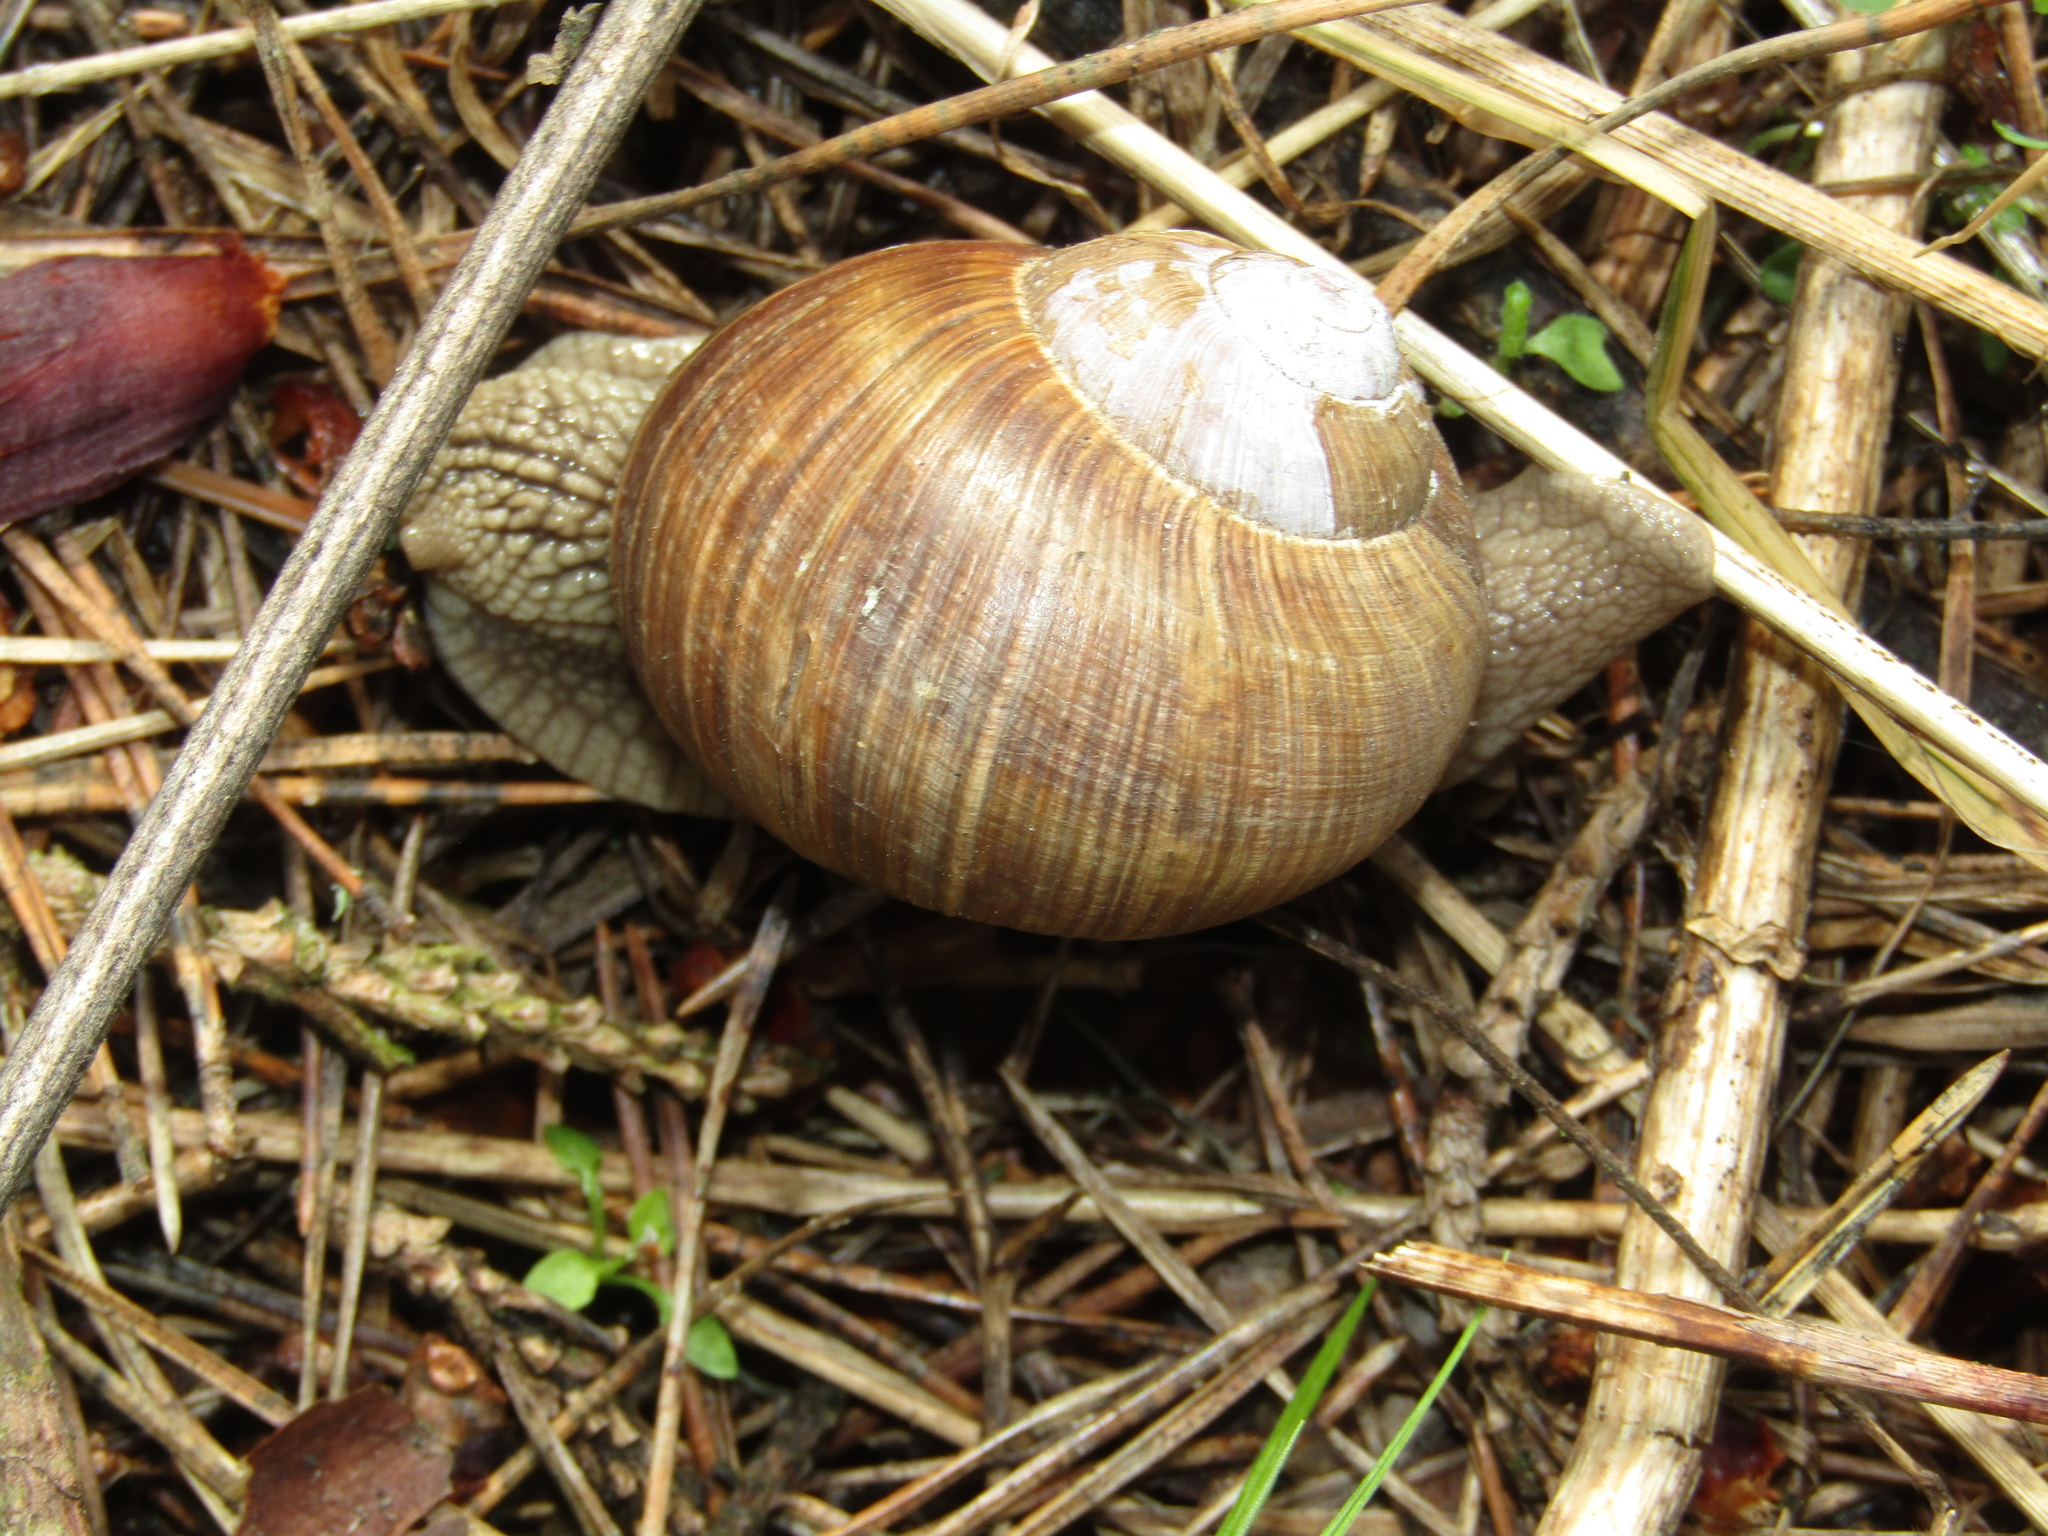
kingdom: Animalia
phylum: Mollusca
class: Gastropoda
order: Stylommatophora
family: Helicidae
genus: Helix
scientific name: Helix pomatia
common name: Roman snail
